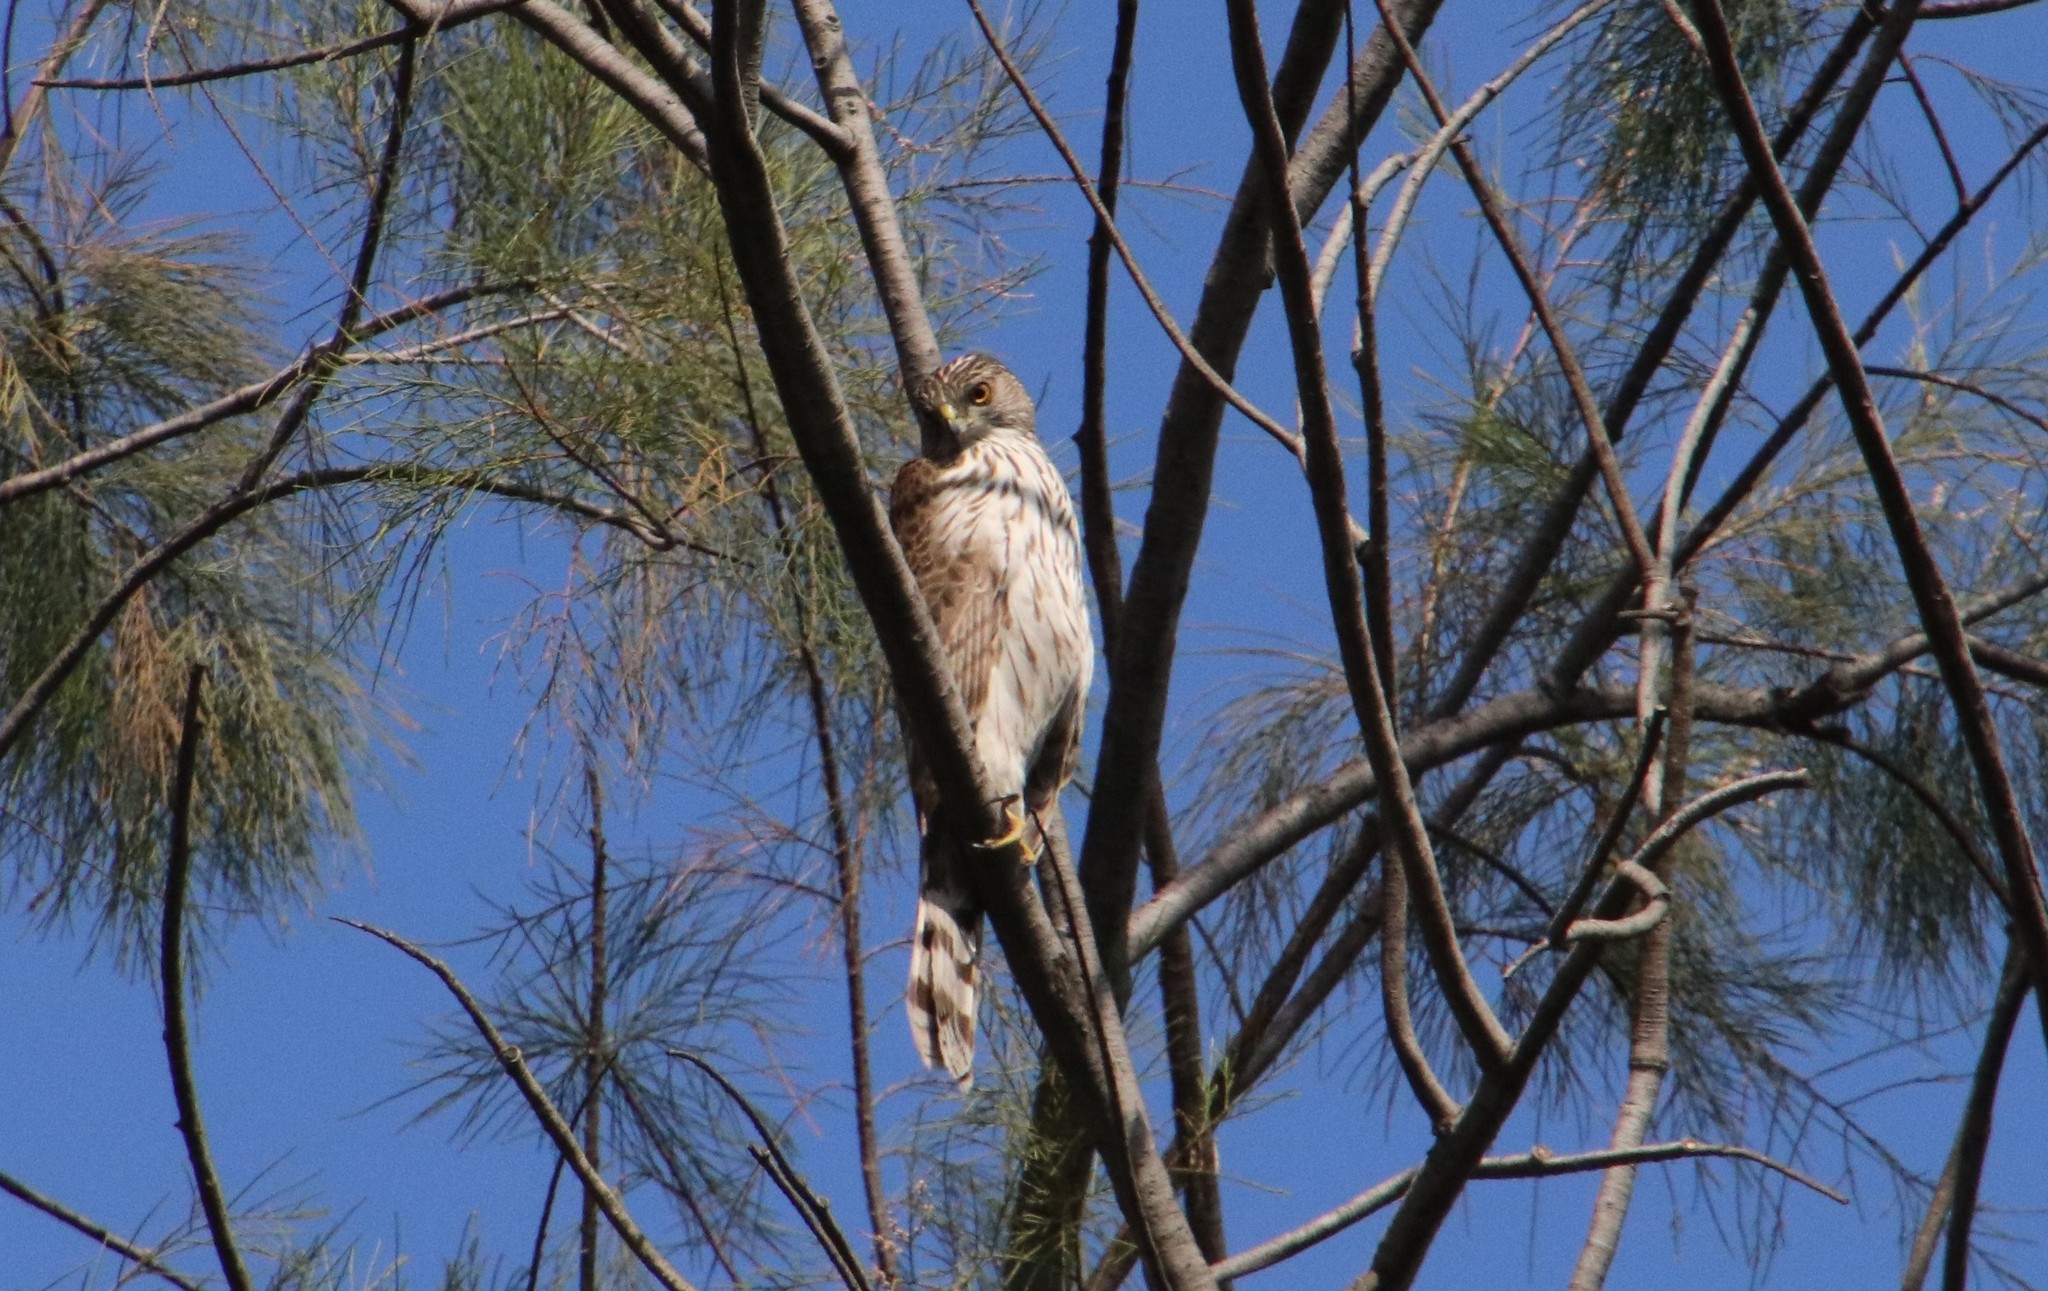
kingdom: Animalia
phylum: Chordata
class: Aves
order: Accipitriformes
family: Accipitridae
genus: Accipiter
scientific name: Accipiter cooperii
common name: Cooper's hawk
